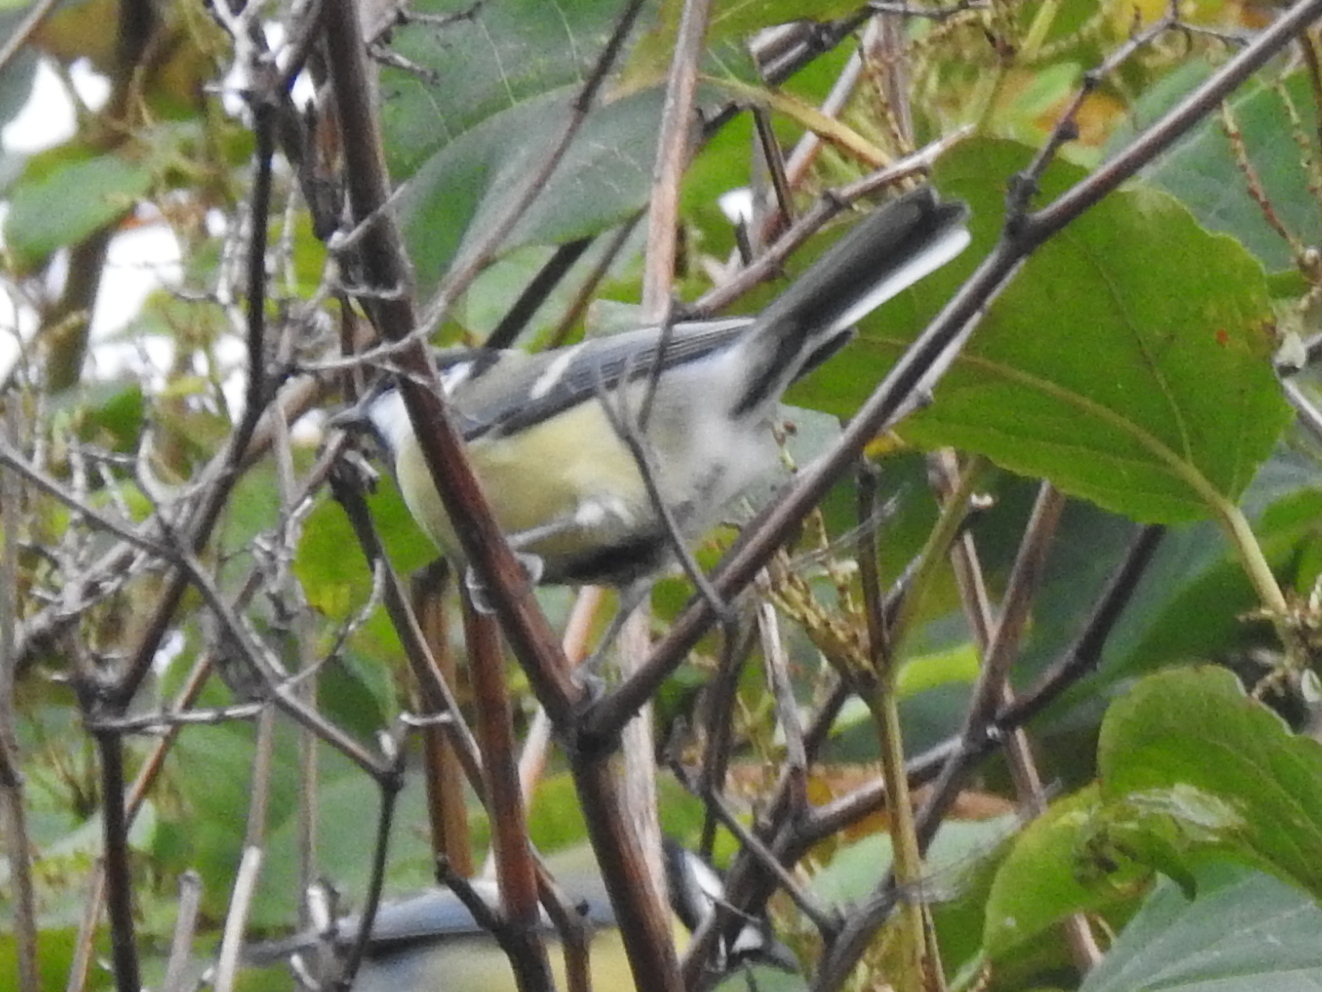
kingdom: Animalia
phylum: Chordata
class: Aves
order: Passeriformes
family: Paridae
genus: Parus
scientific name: Parus major
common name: Great tit
